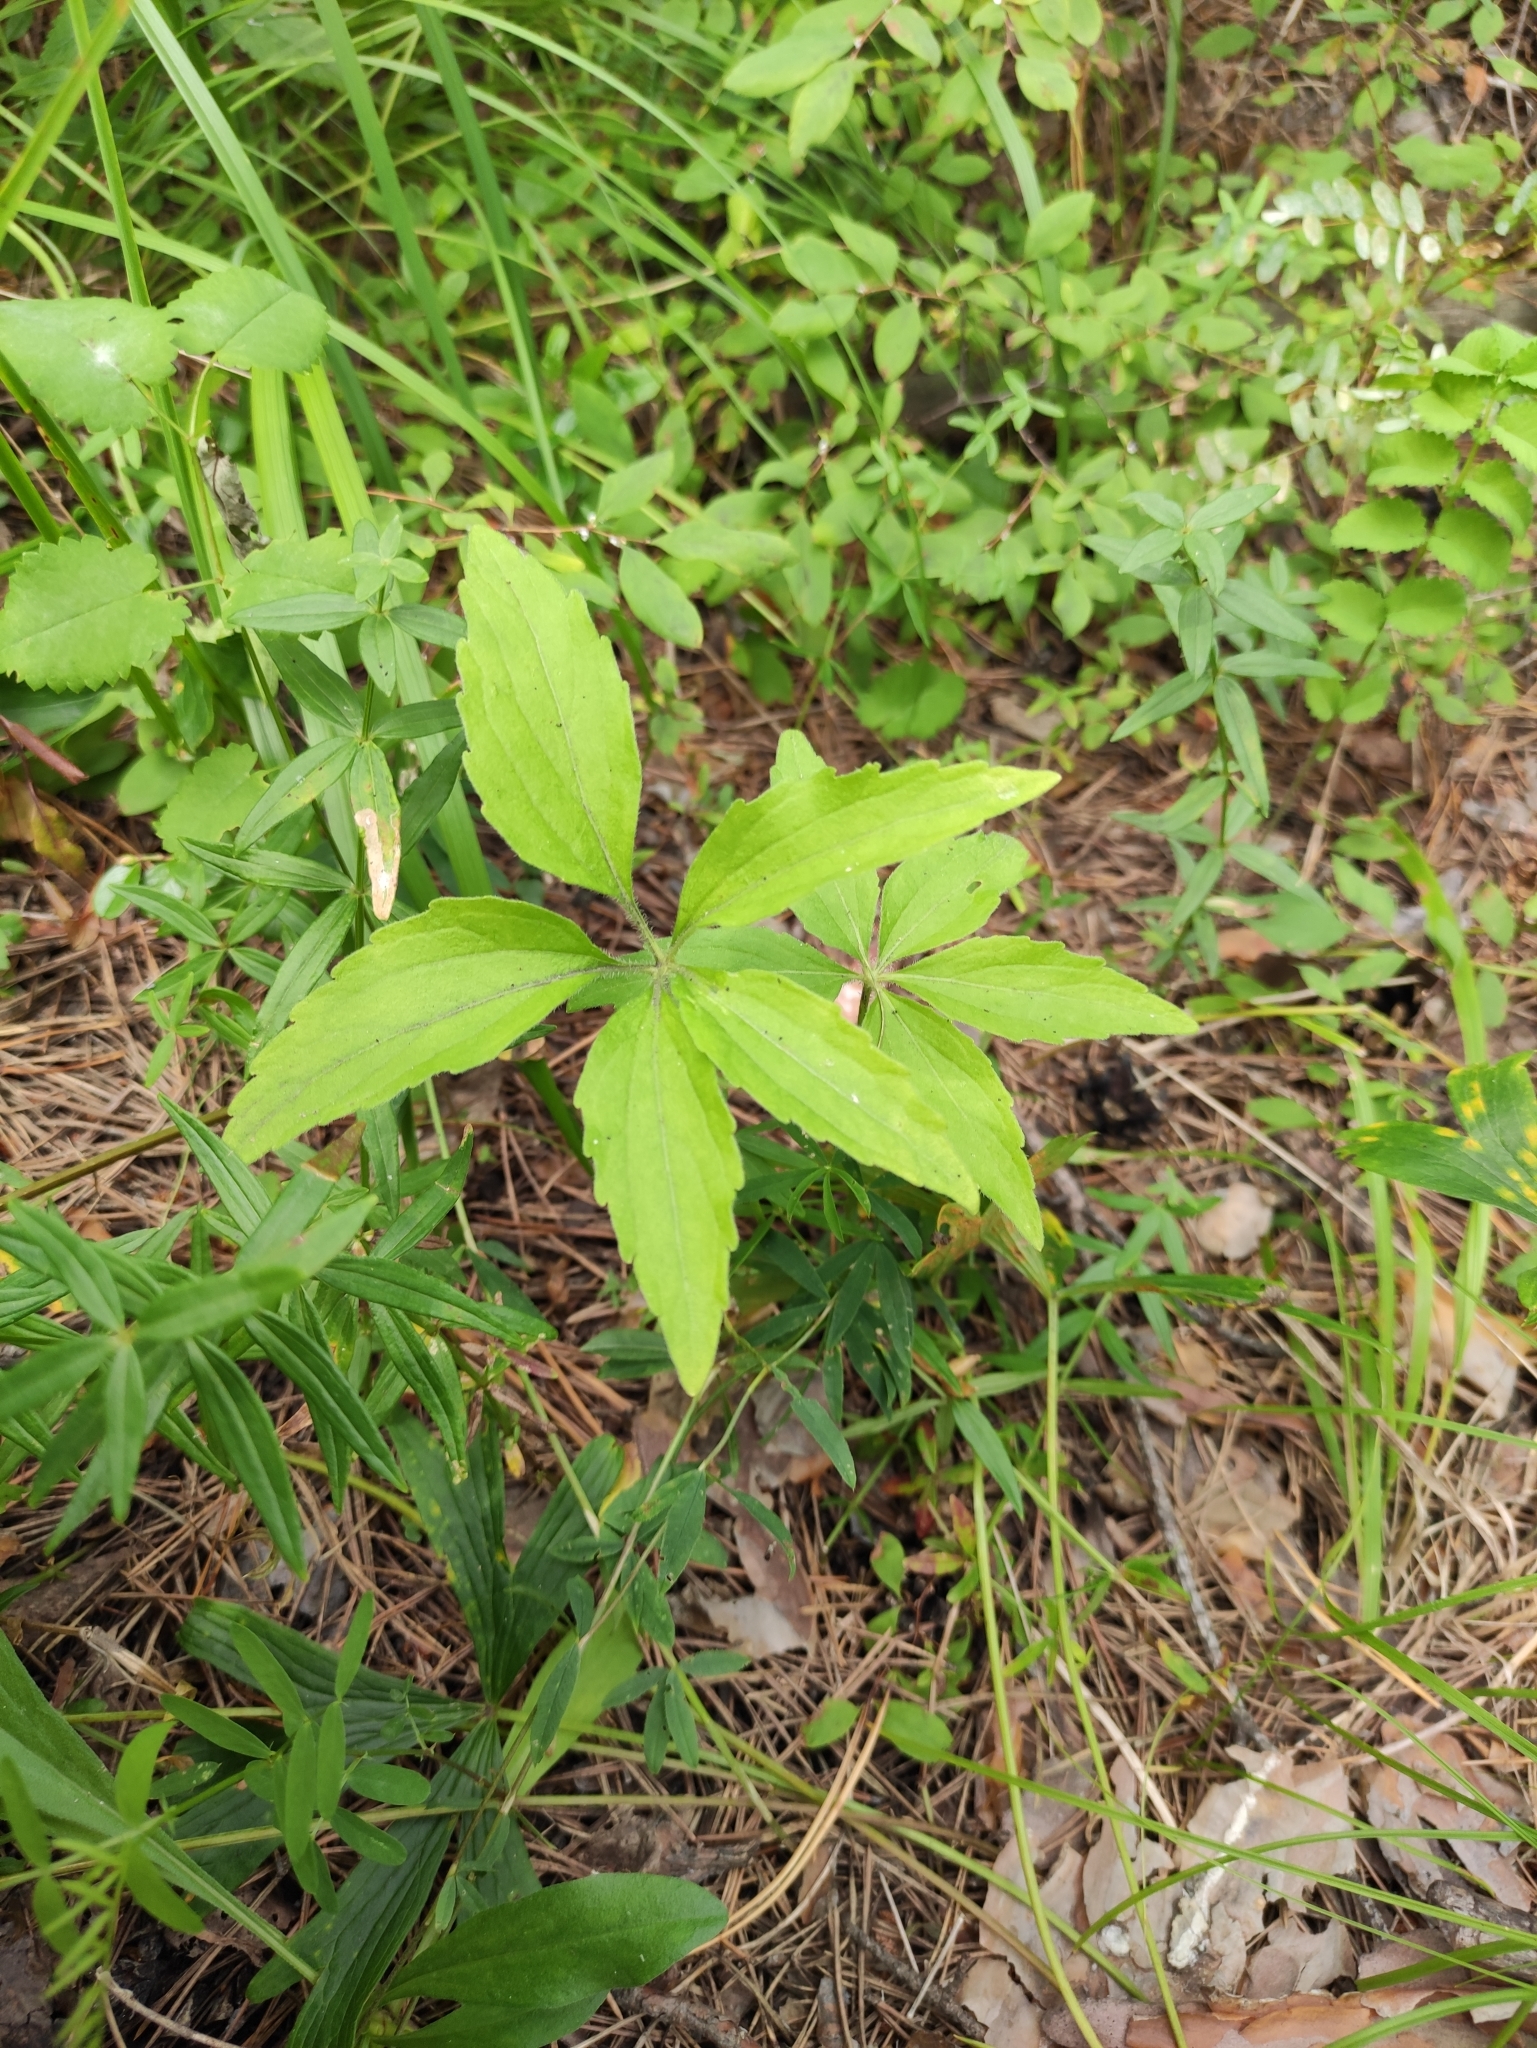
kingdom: Plantae
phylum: Tracheophyta
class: Magnoliopsida
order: Malpighiales
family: Violaceae
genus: Viola
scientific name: Viola dactyloides
